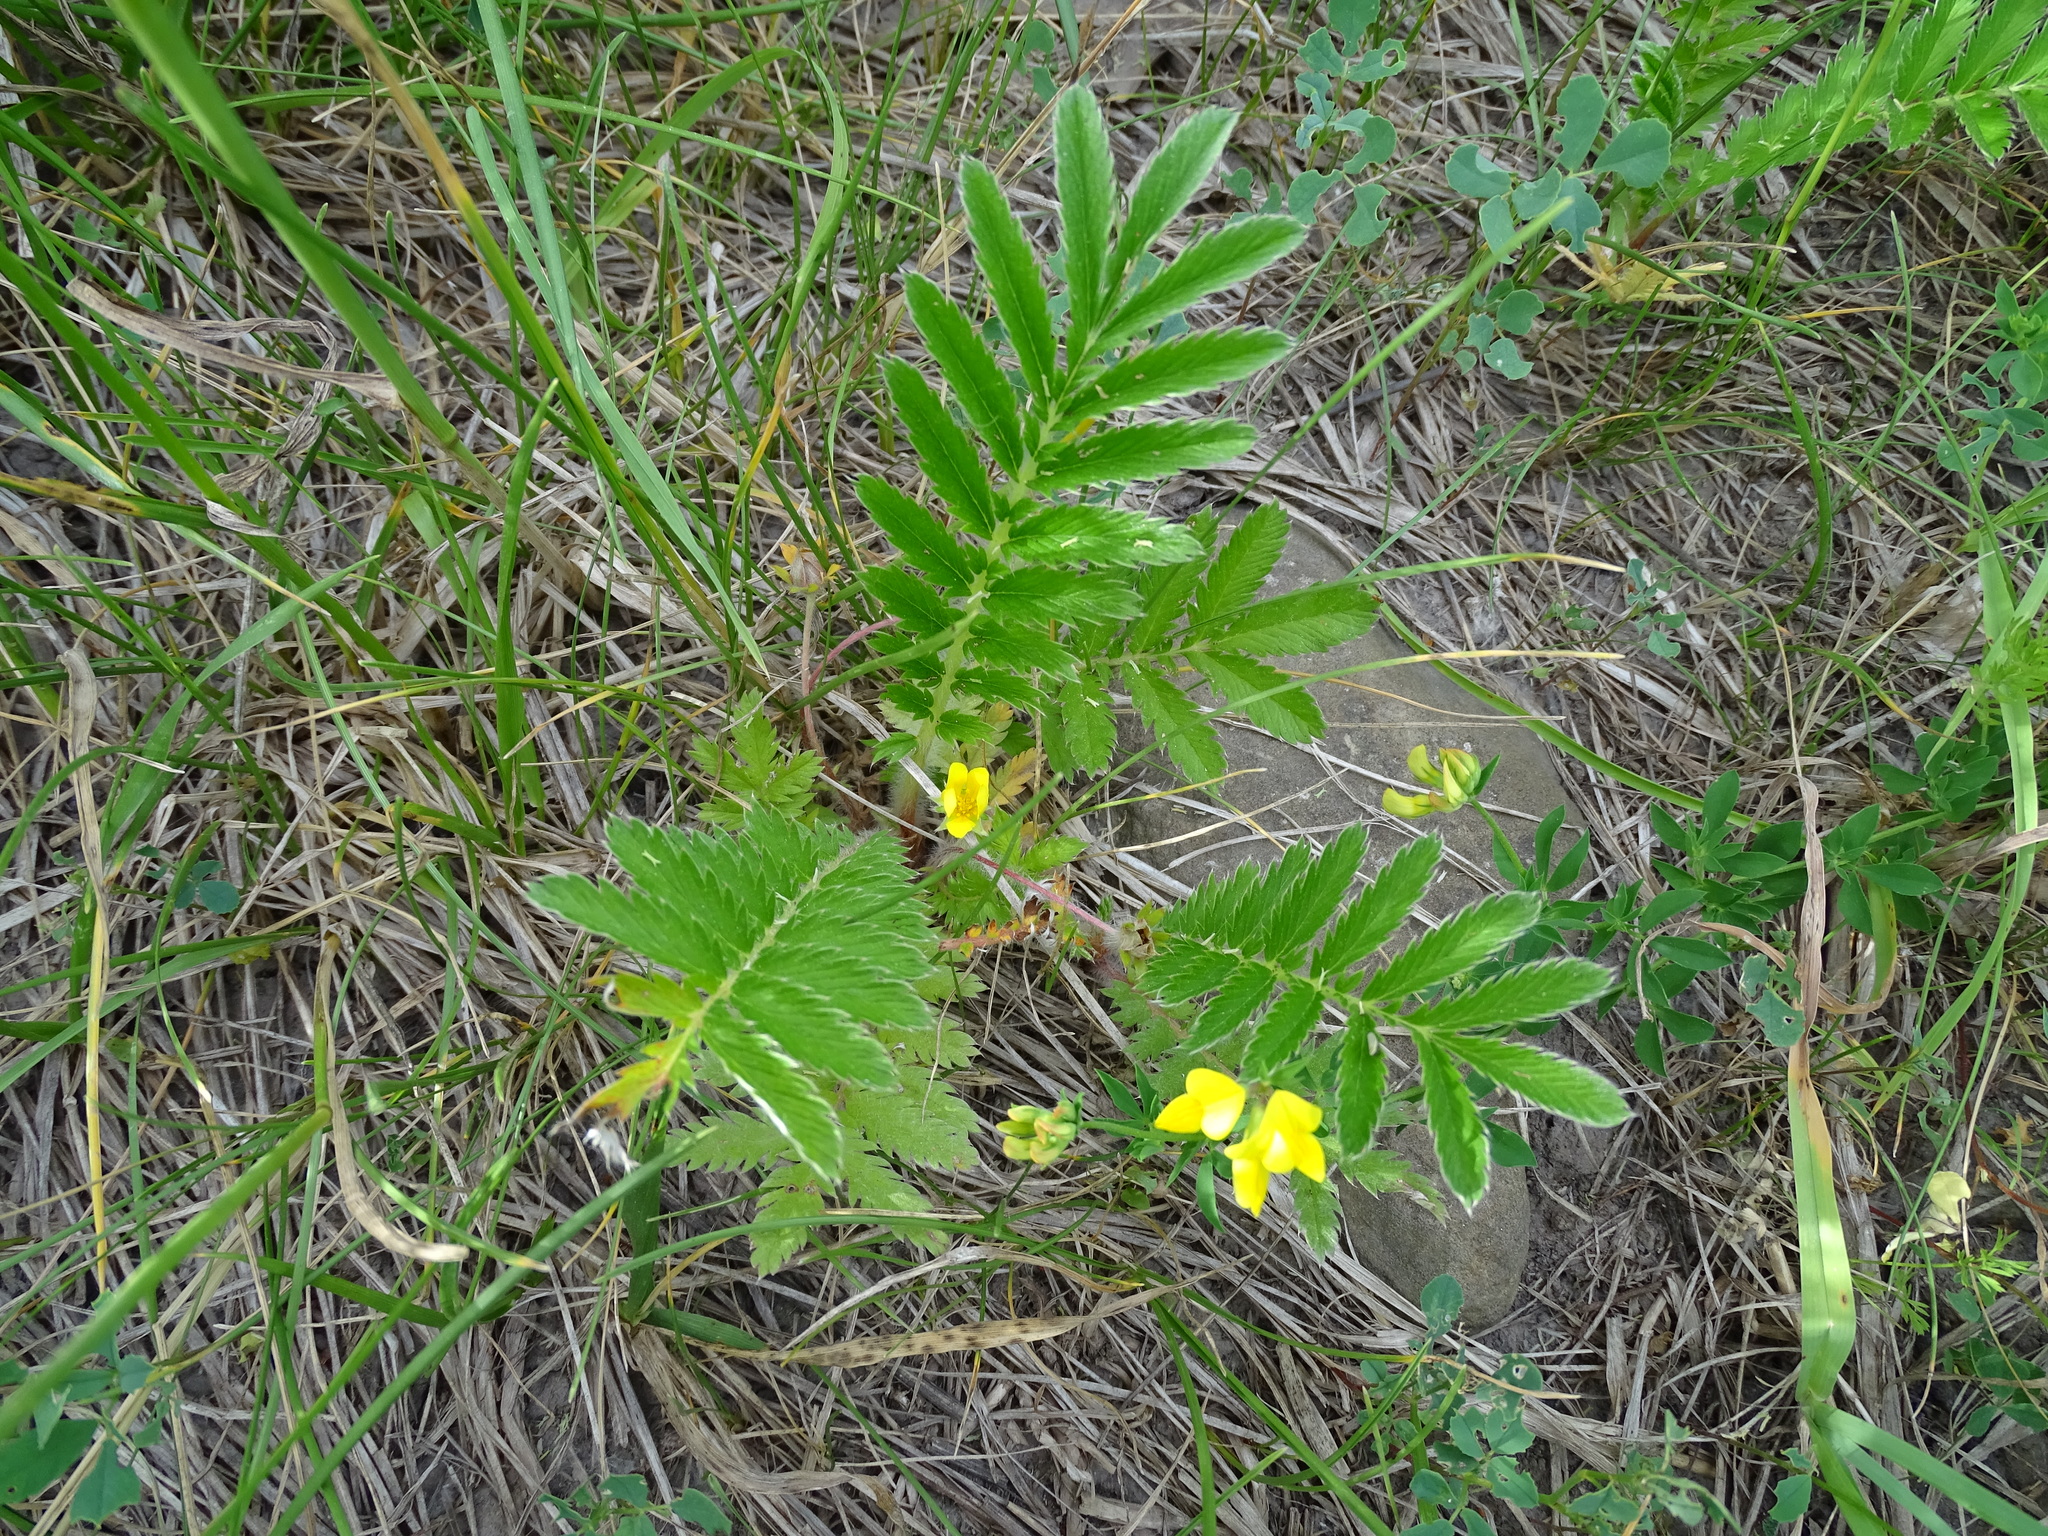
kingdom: Plantae
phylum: Tracheophyta
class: Magnoliopsida
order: Rosales
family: Rosaceae
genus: Argentina
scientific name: Argentina anserina
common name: Common silverweed
